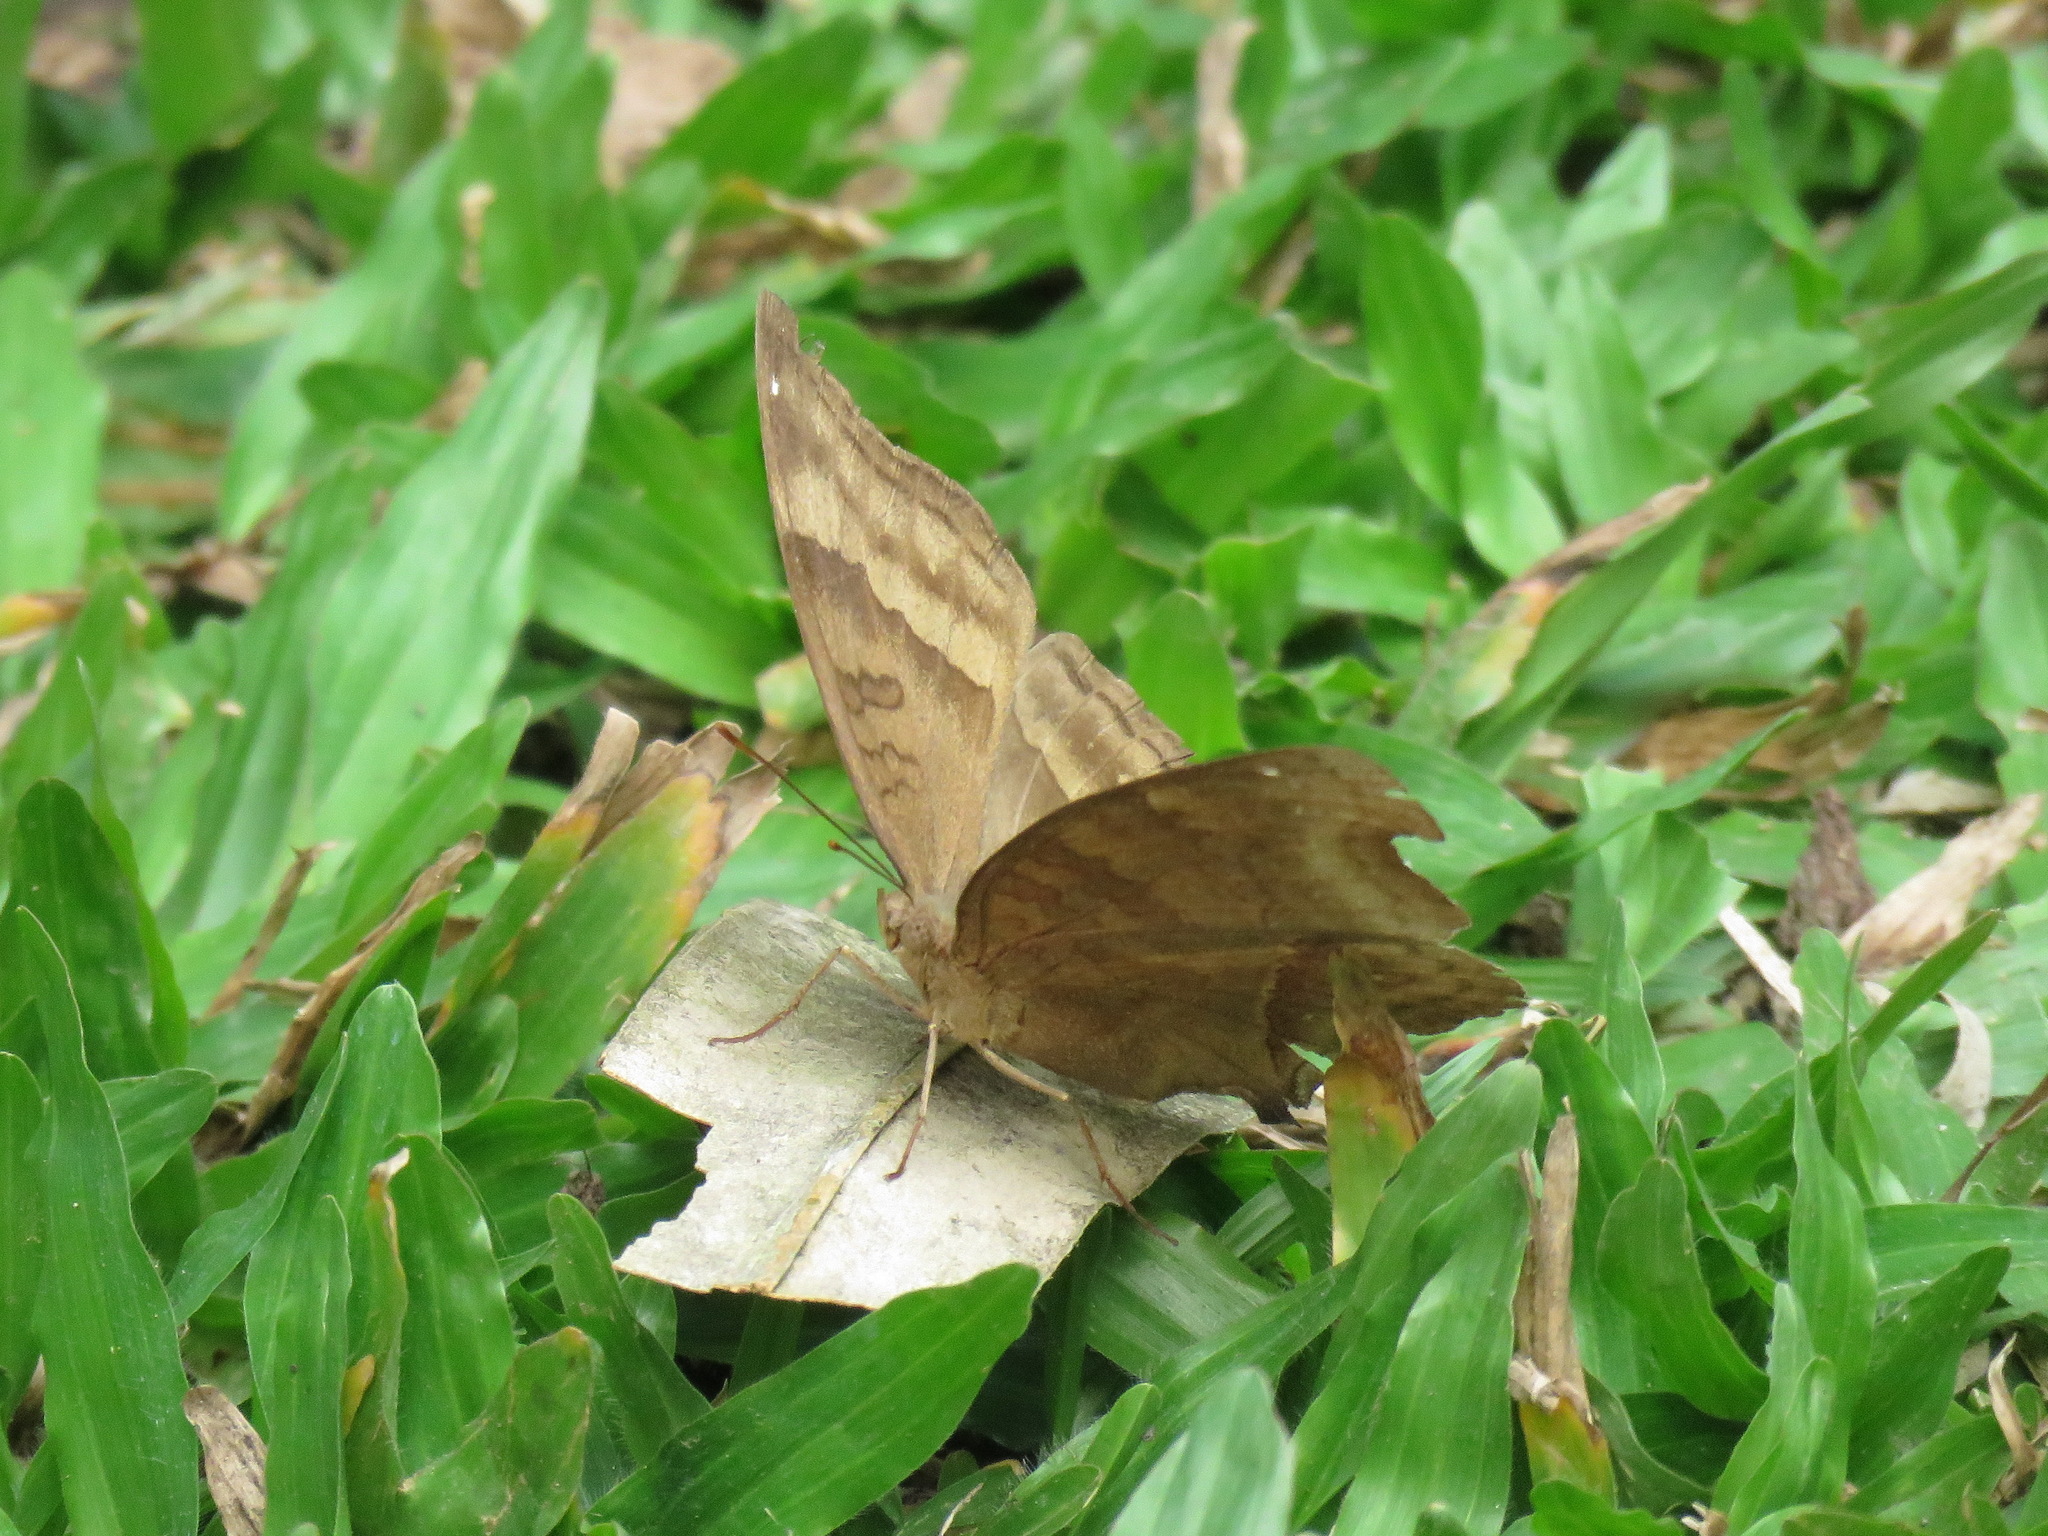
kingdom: Animalia
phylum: Arthropoda
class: Insecta
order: Lepidoptera
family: Nymphalidae
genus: Junonia
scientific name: Junonia iphita
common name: Chocolate pansy
